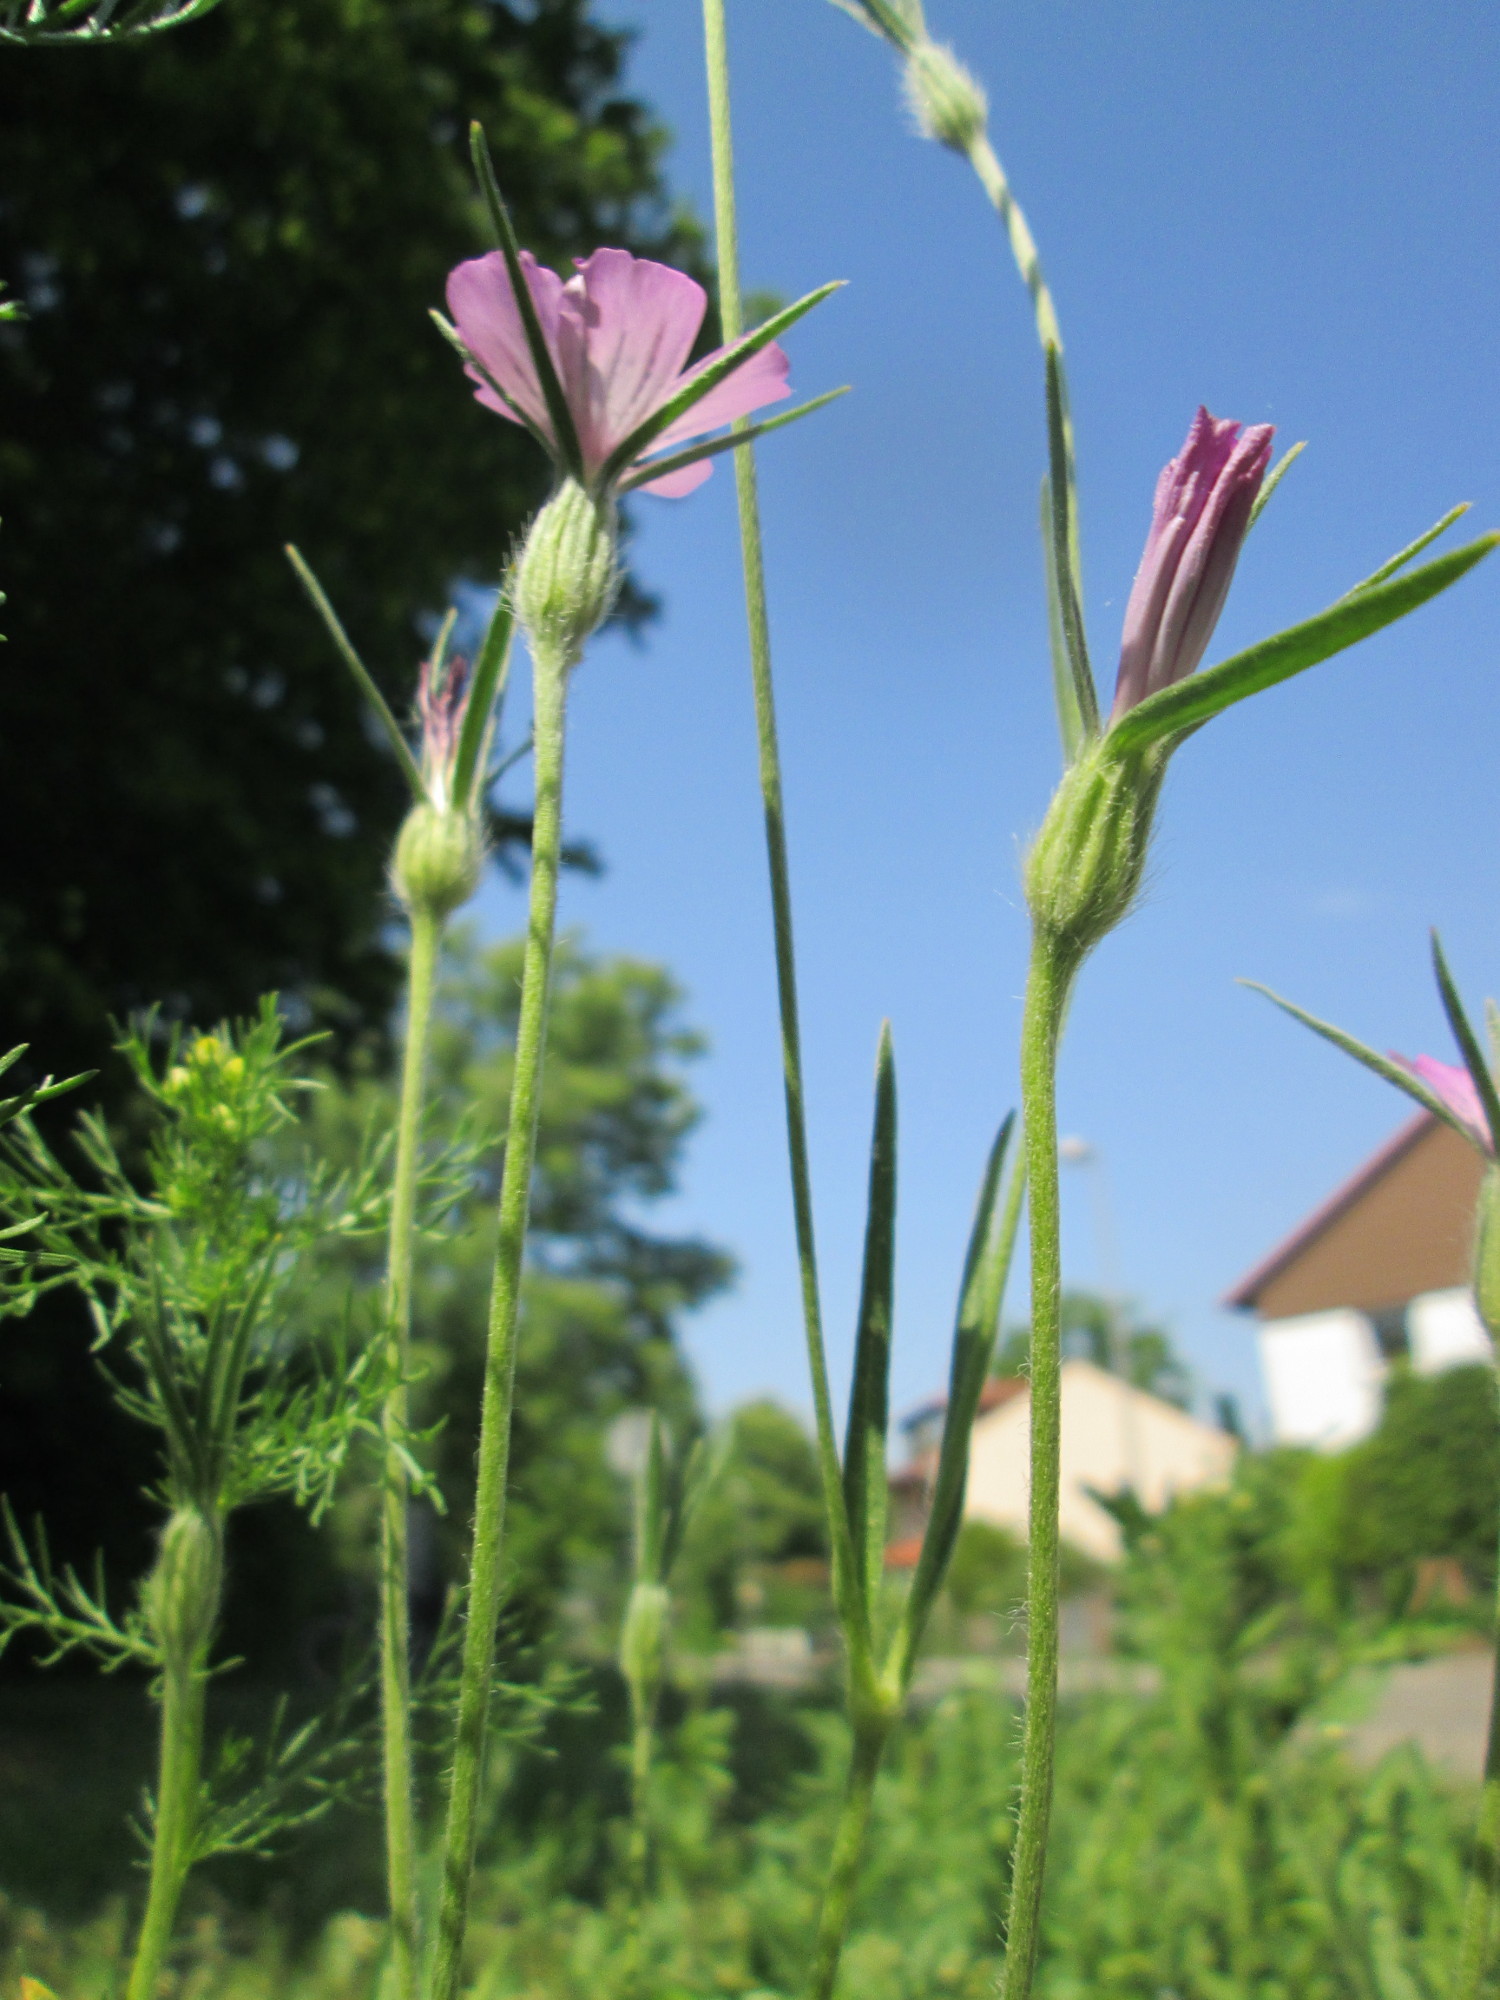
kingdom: Plantae
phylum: Tracheophyta
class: Magnoliopsida
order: Caryophyllales
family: Caryophyllaceae
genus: Agrostemma
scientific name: Agrostemma githago
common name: Common corncockle
